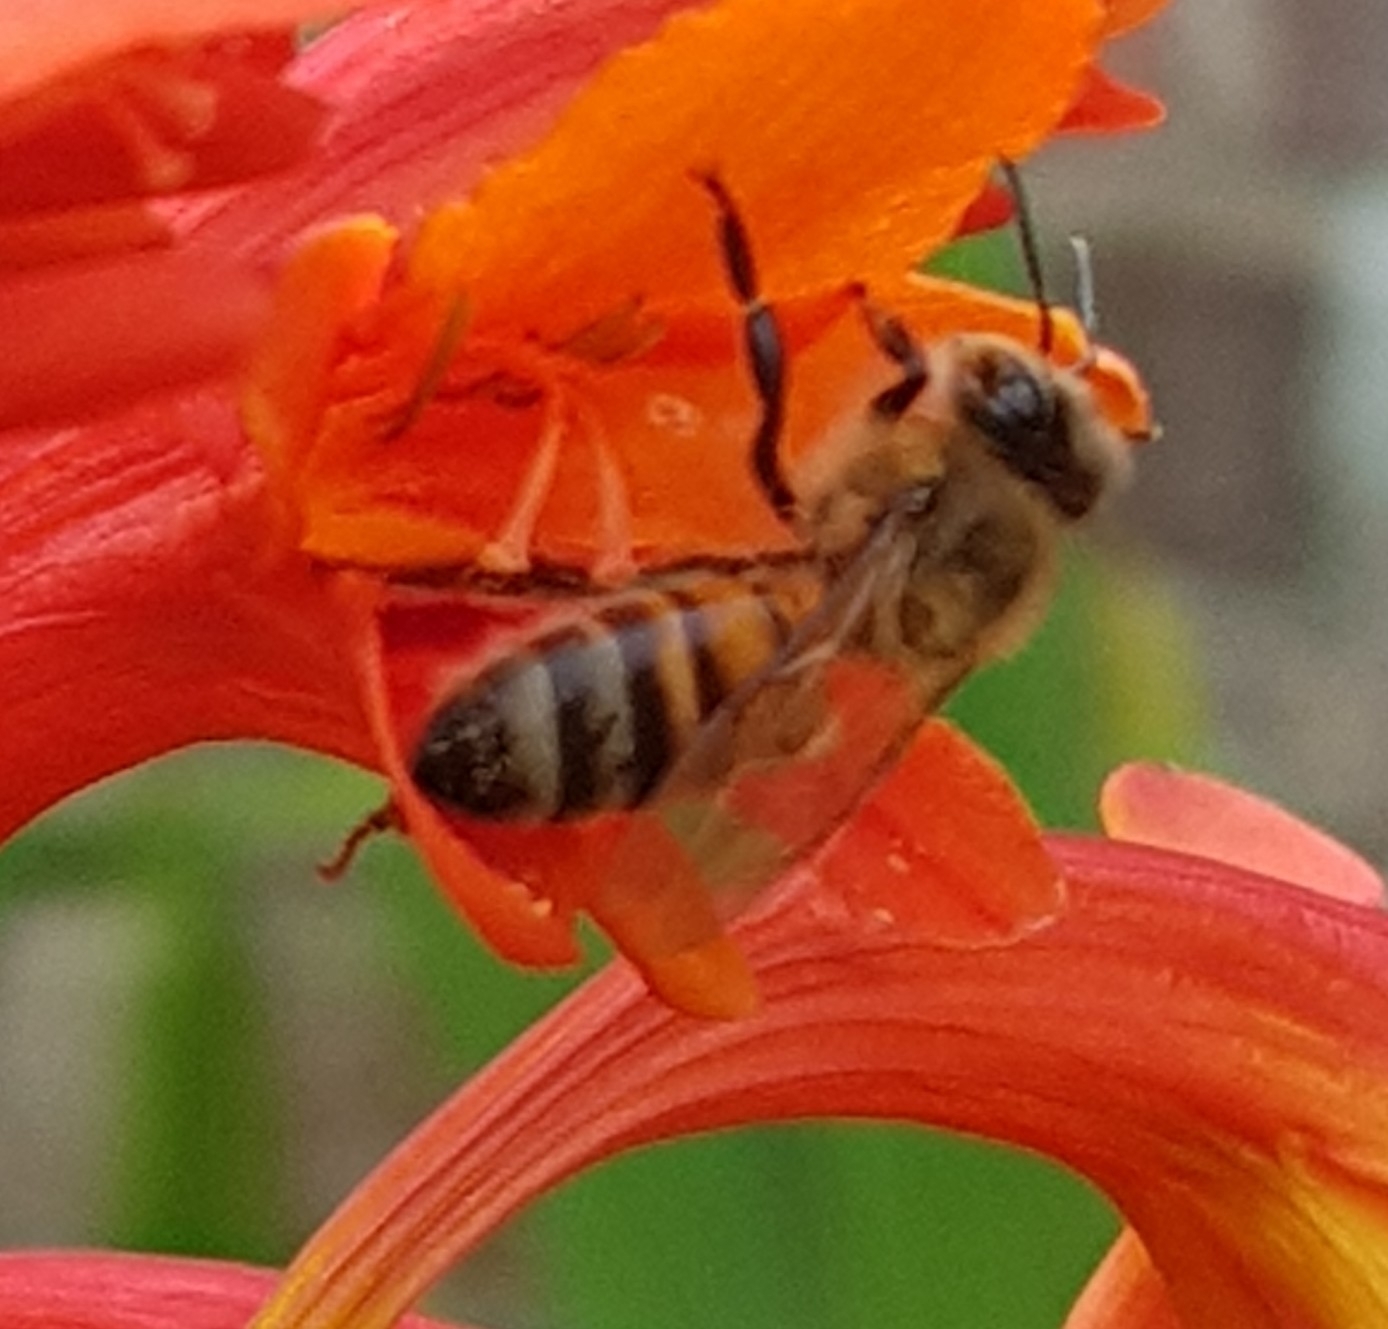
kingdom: Animalia
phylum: Arthropoda
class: Insecta
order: Hymenoptera
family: Apidae
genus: Apis
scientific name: Apis mellifera
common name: Honey bee
